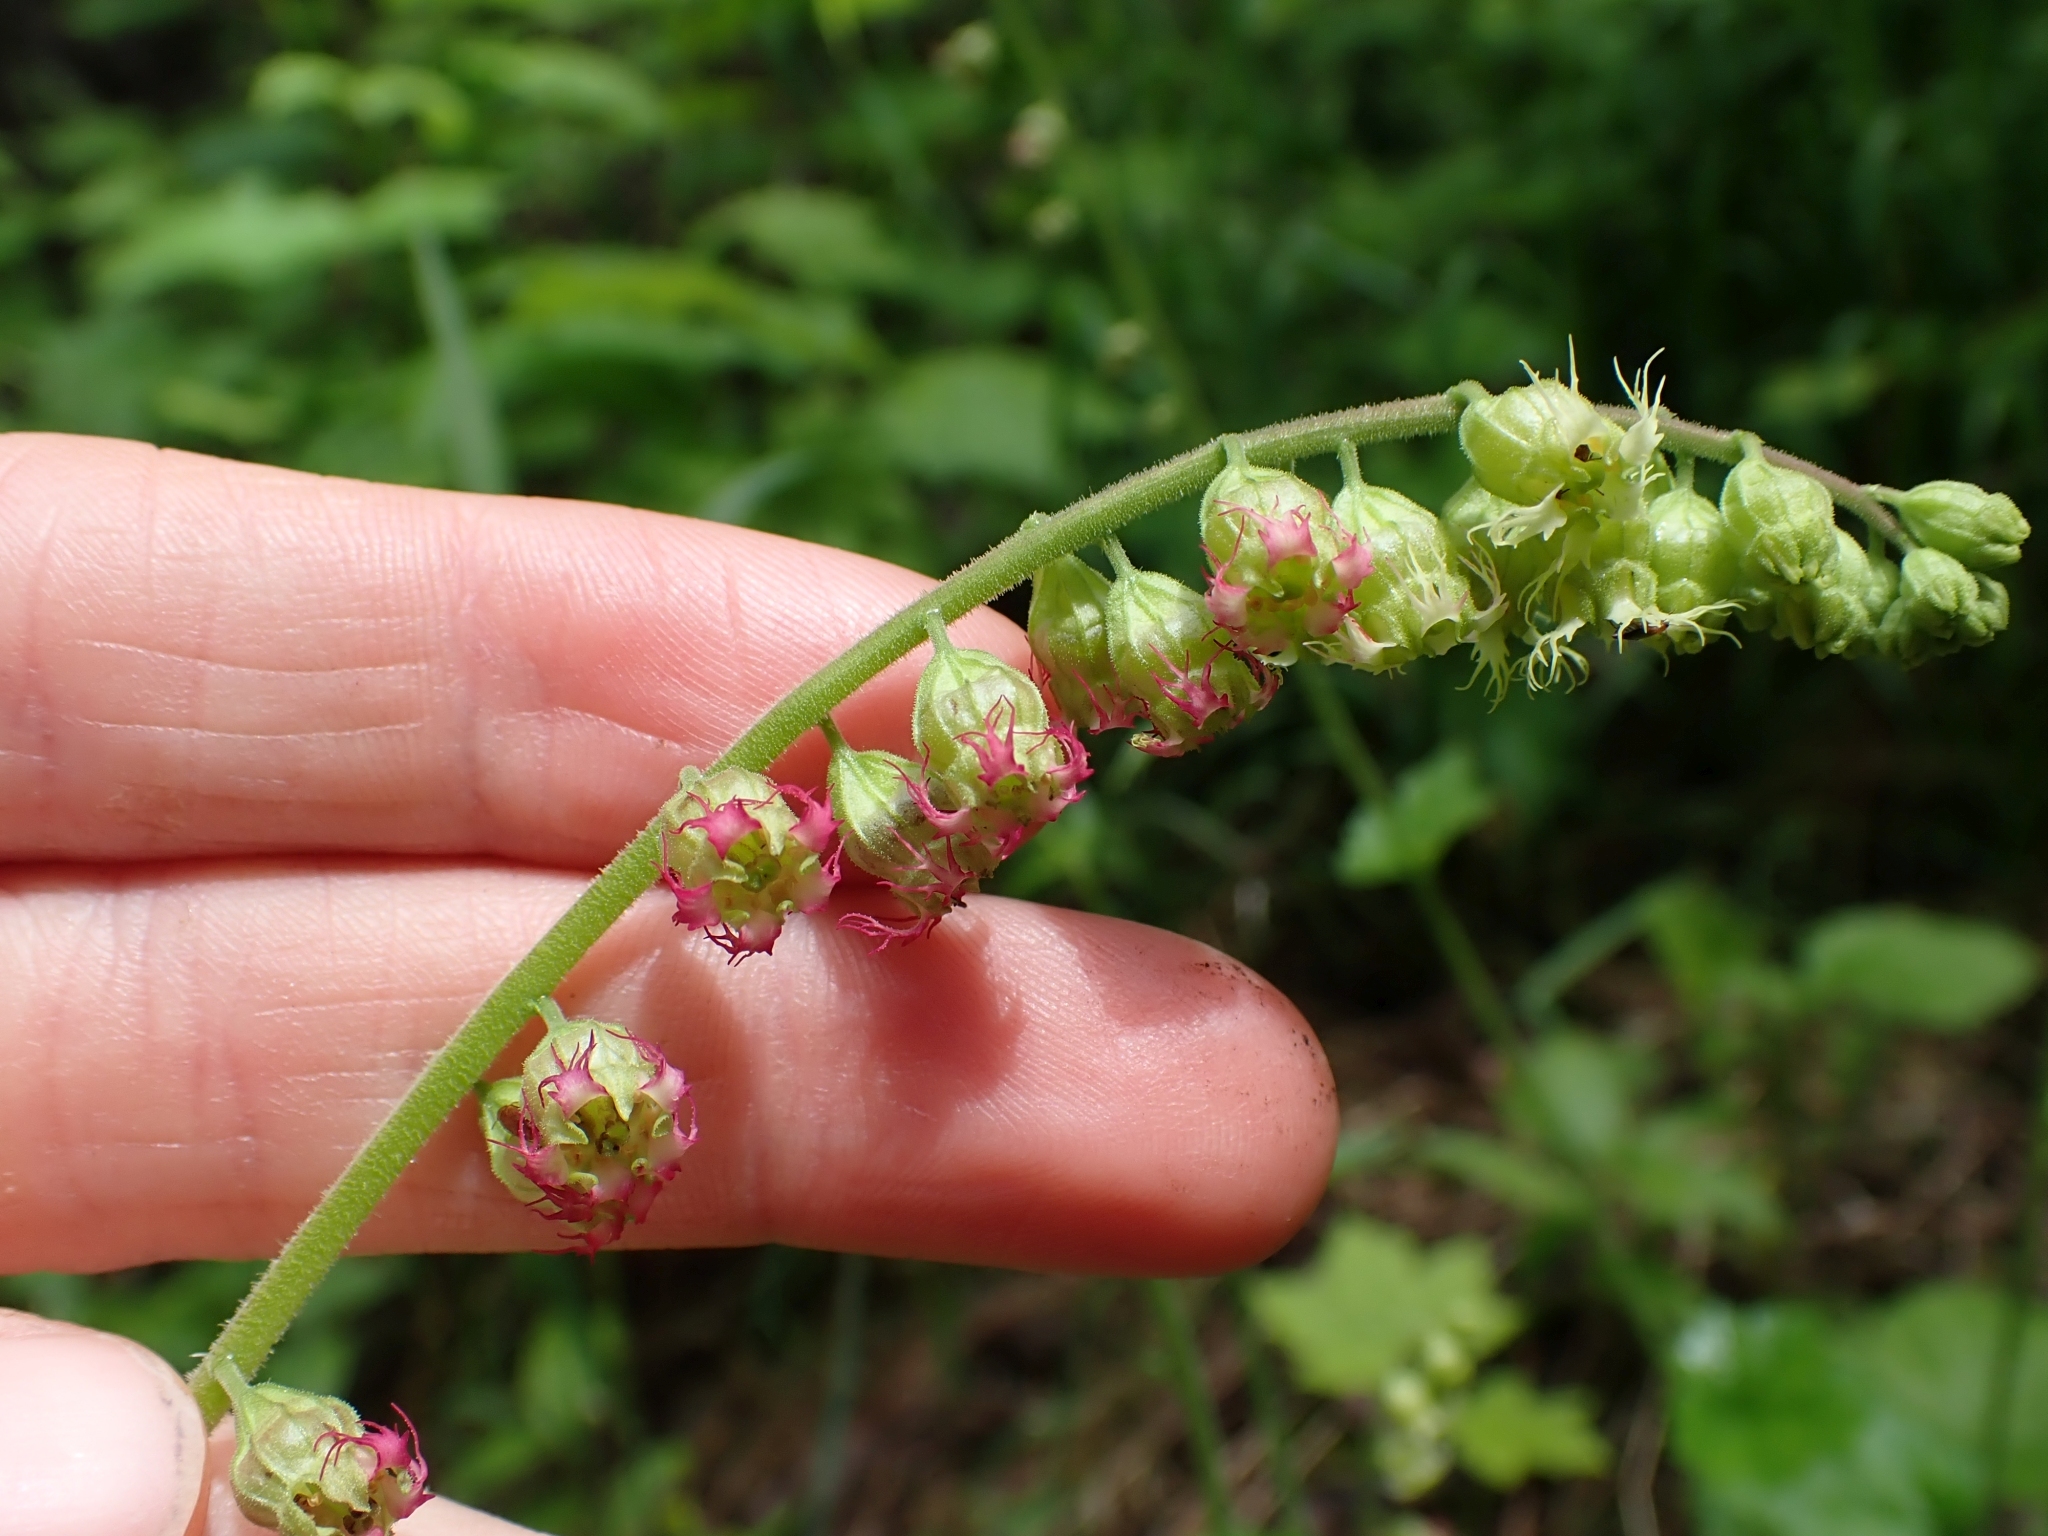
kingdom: Plantae
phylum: Tracheophyta
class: Magnoliopsida
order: Saxifragales
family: Saxifragaceae
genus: Tellima
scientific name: Tellima grandiflora
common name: Fringecups
